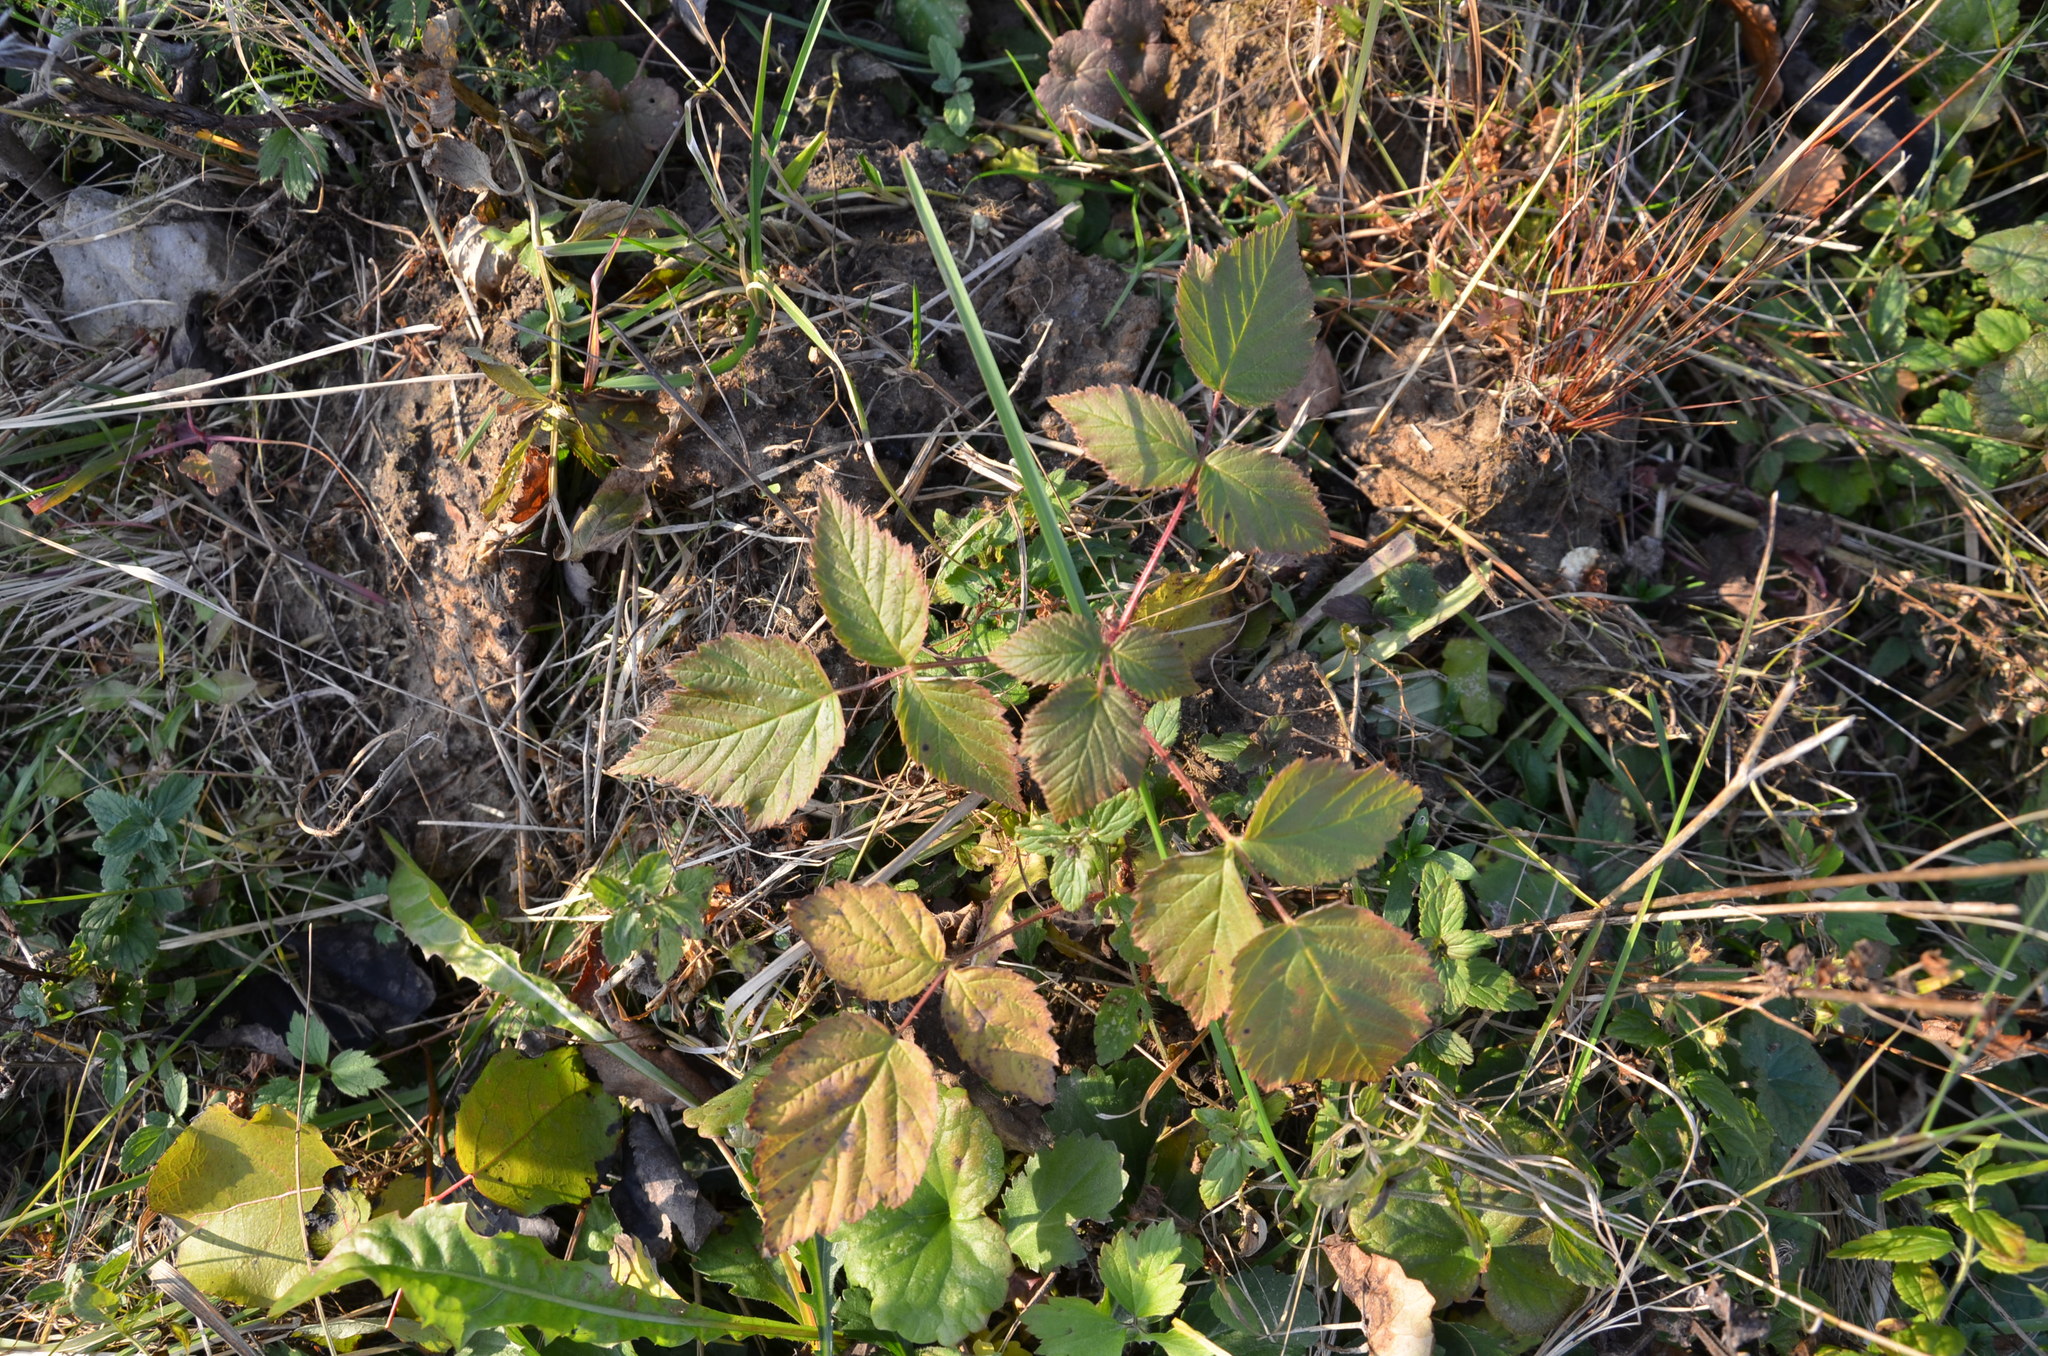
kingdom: Plantae
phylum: Tracheophyta
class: Magnoliopsida
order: Rosales
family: Rosaceae
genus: Rubus
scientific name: Rubus idaeus
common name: Raspberry
